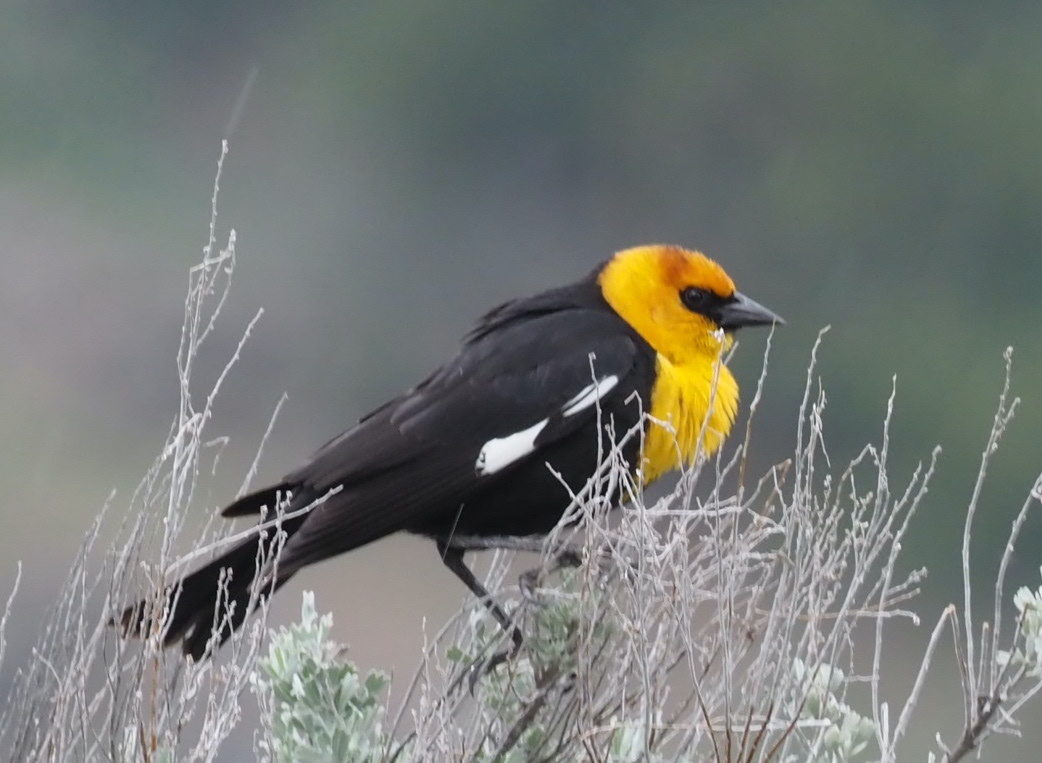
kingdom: Animalia
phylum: Chordata
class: Aves
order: Passeriformes
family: Icteridae
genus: Xanthocephalus
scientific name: Xanthocephalus xanthocephalus
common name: Yellow-headed blackbird
